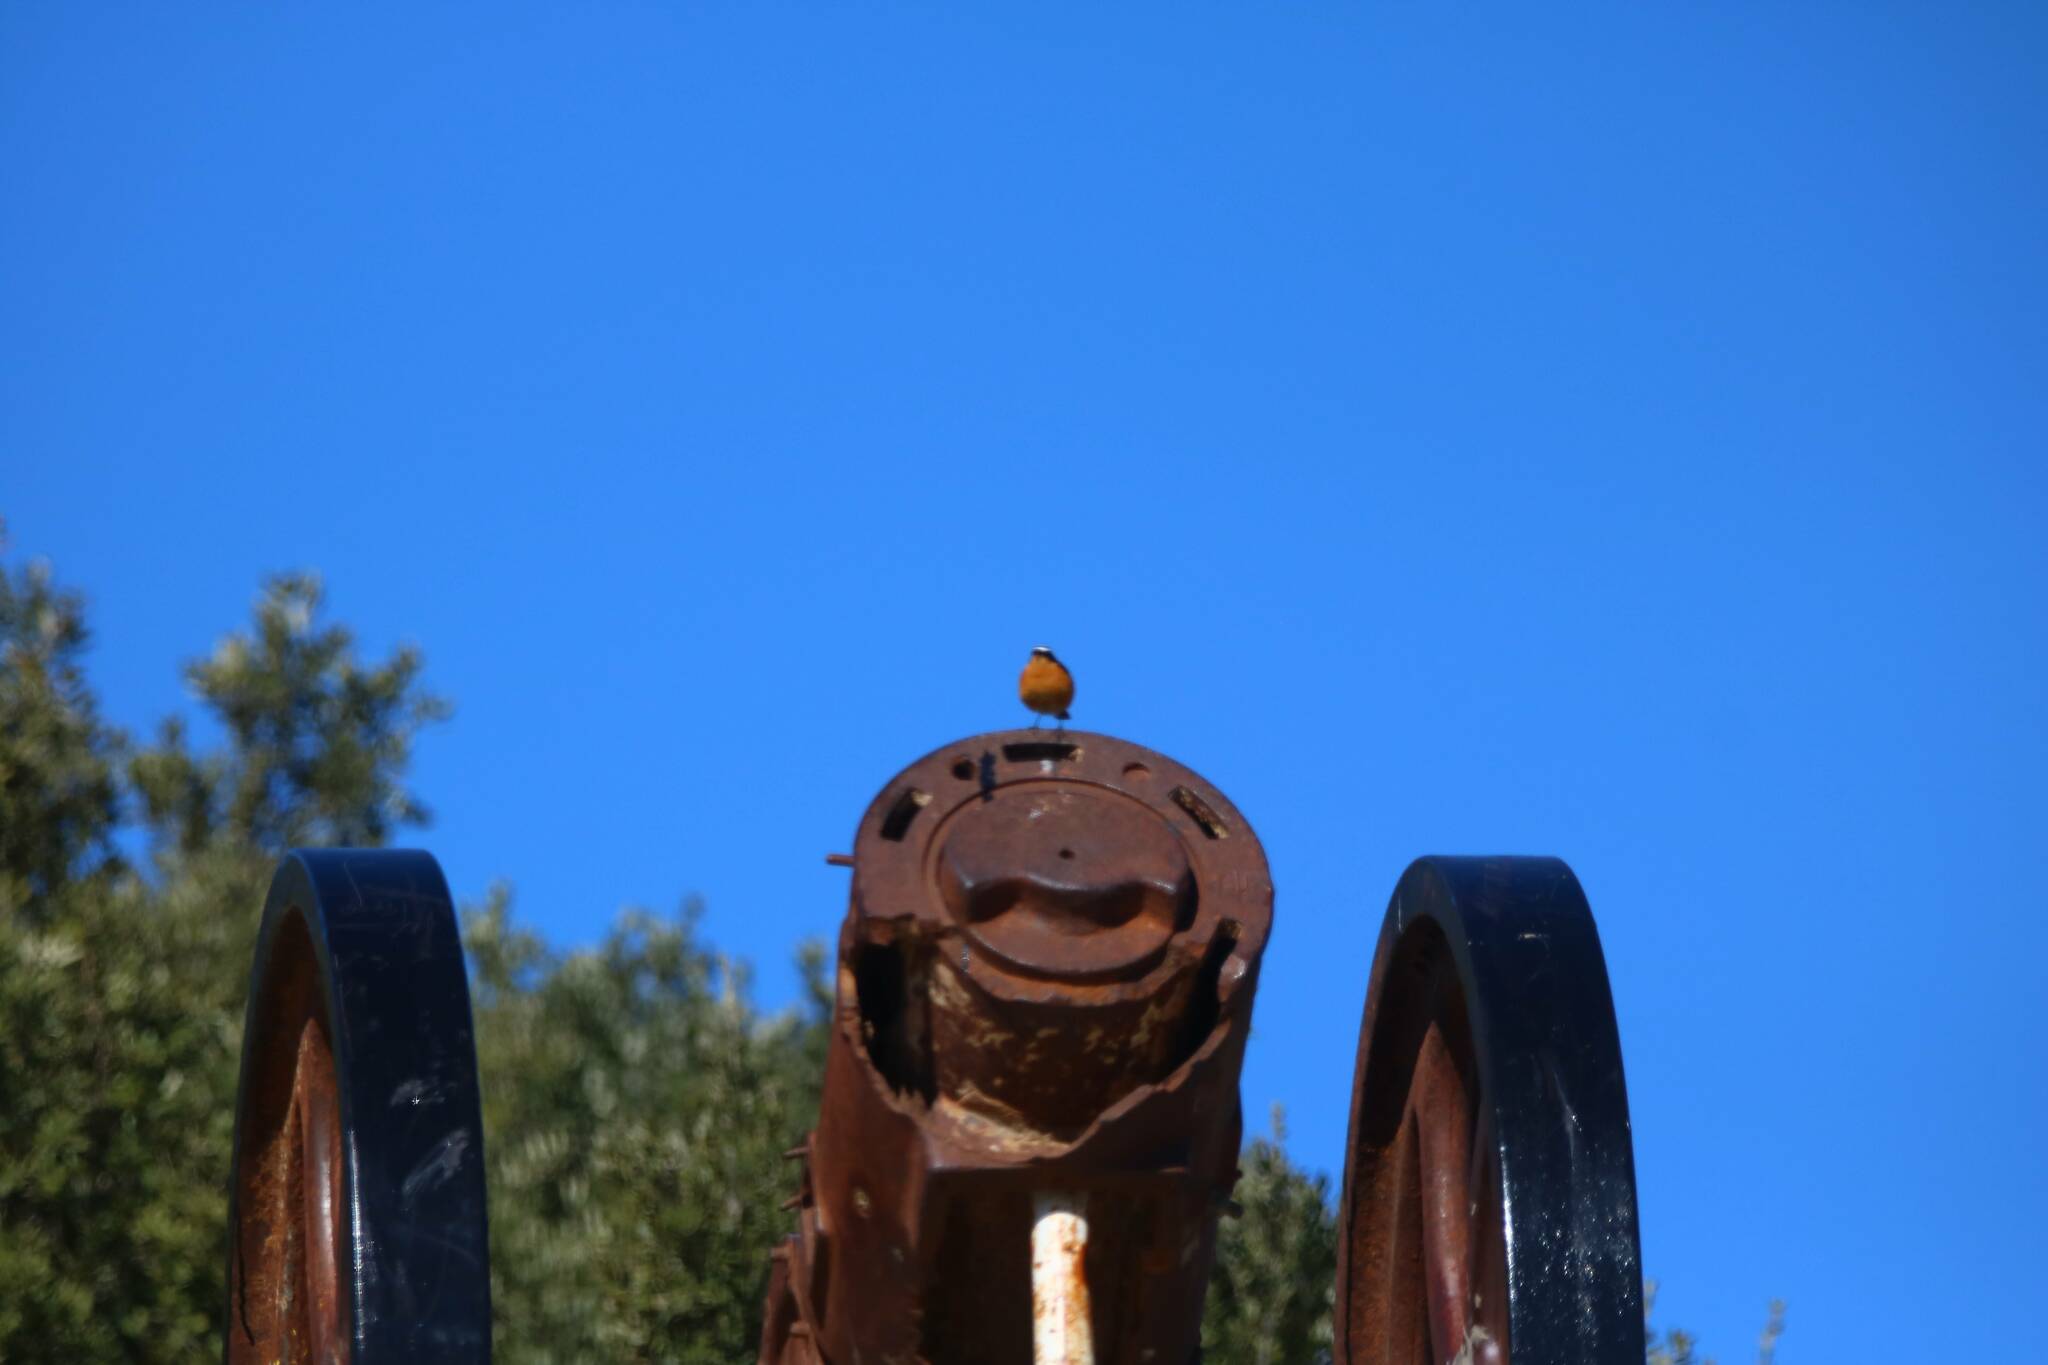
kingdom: Animalia
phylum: Chordata
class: Aves
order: Passeriformes
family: Muscicapidae
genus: Phoenicurus
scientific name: Phoenicurus moussieri
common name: Moussier's redstart
